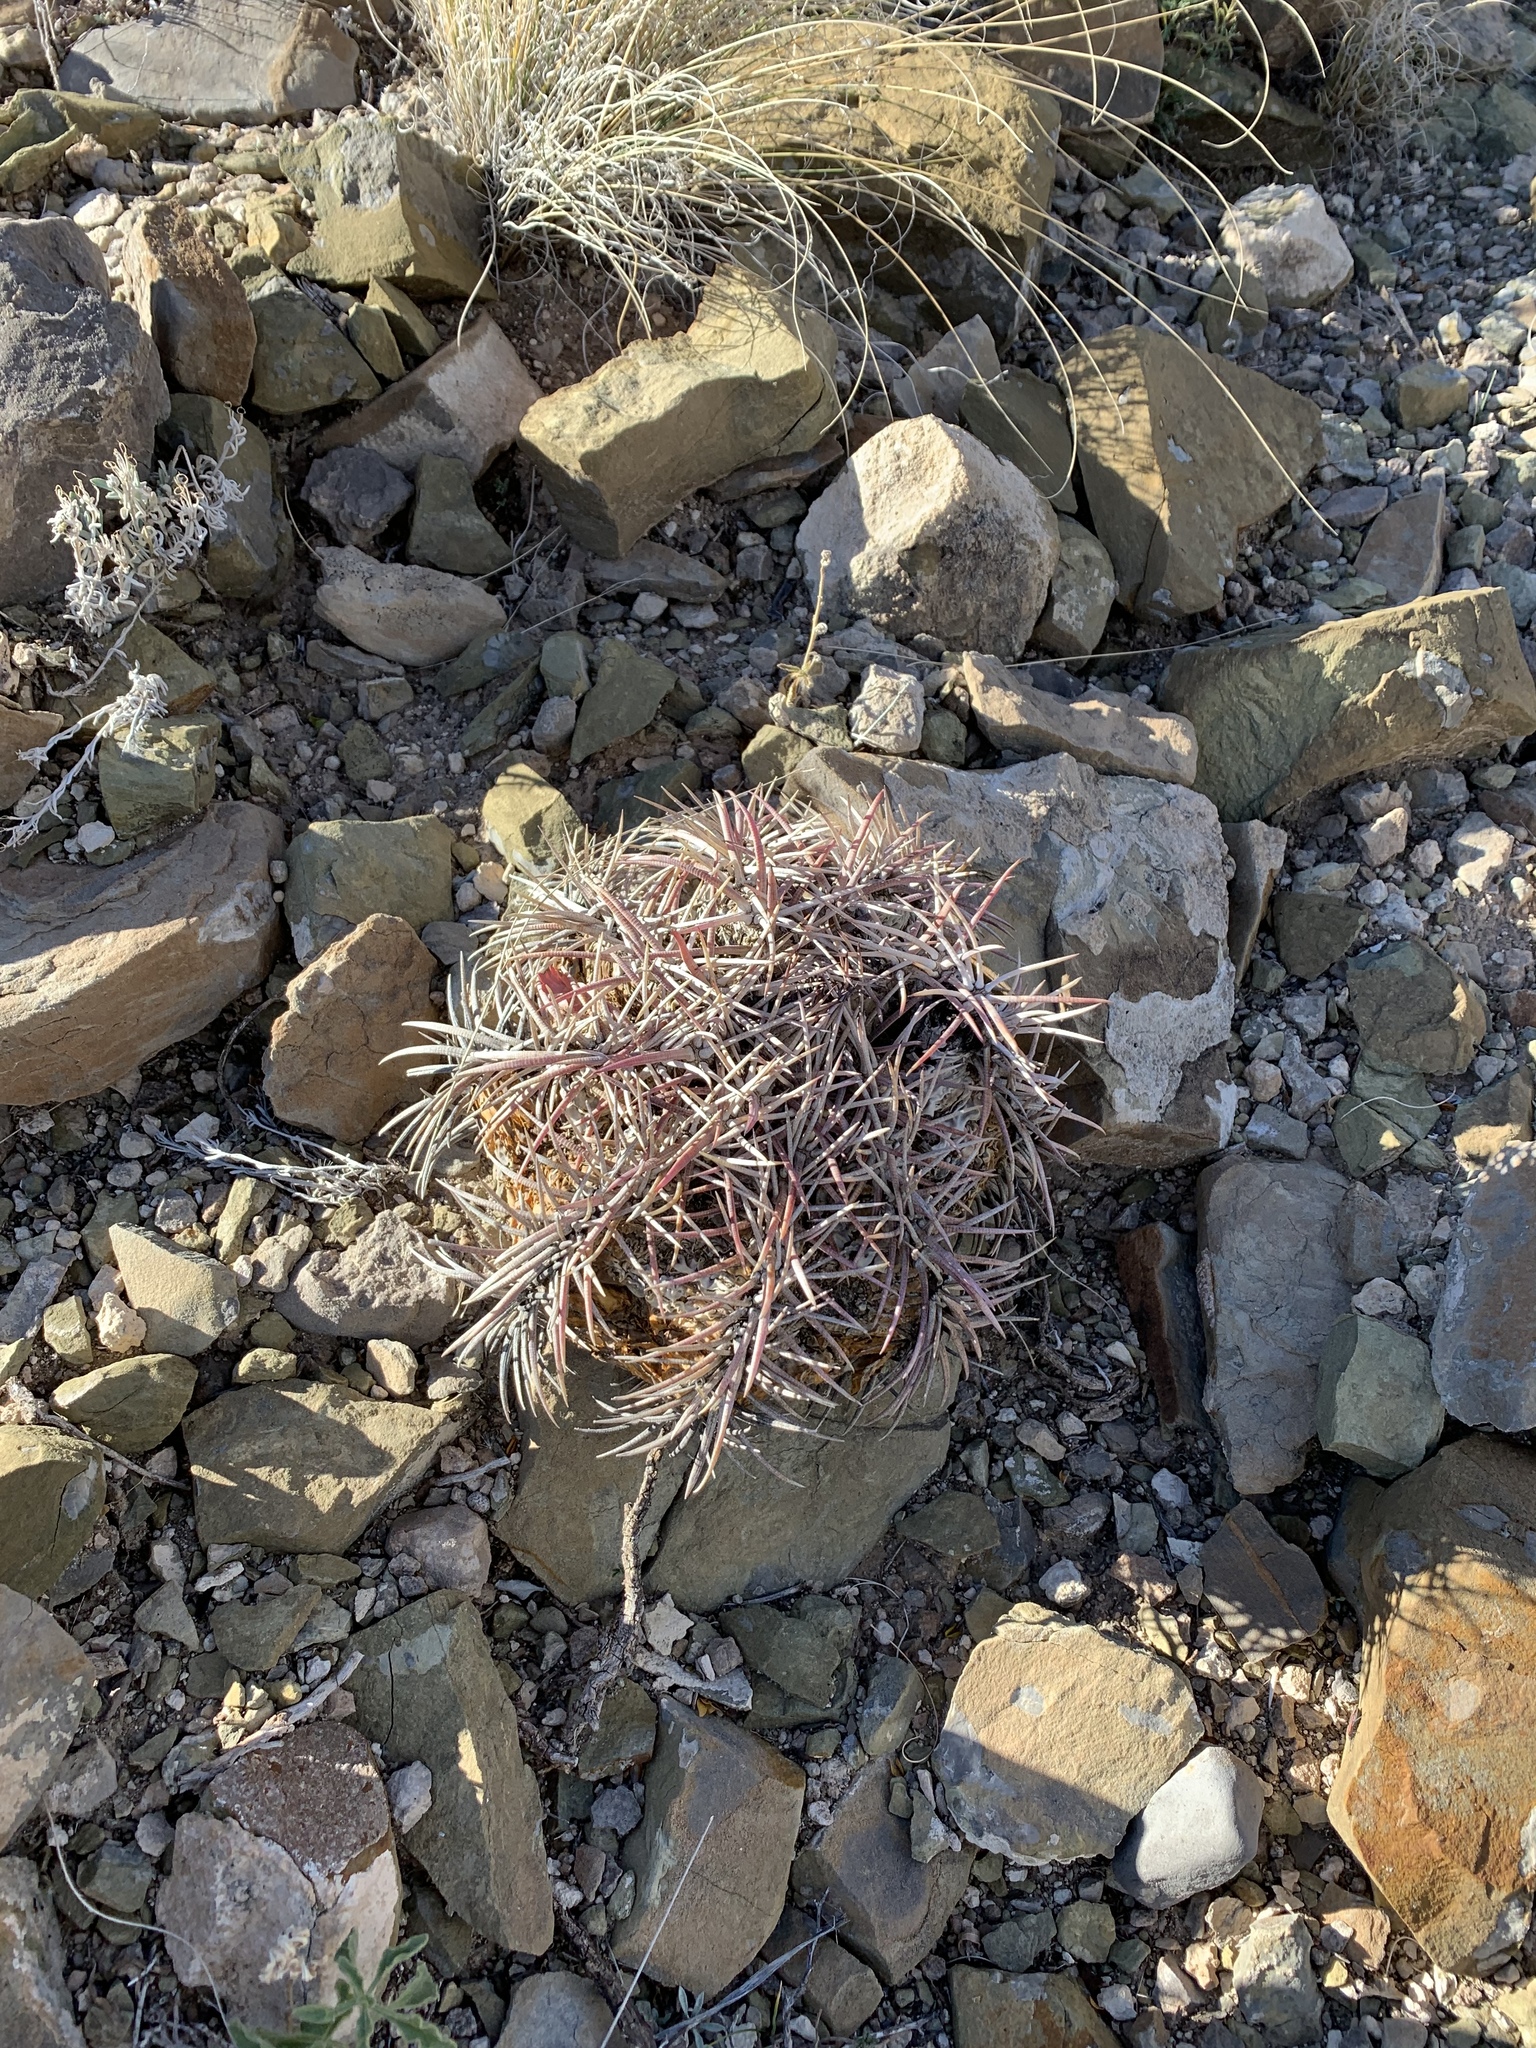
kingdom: Plantae
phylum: Tracheophyta
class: Magnoliopsida
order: Caryophyllales
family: Cactaceae
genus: Echinocactus
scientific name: Echinocactus horizonthalonius
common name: Devilshead
